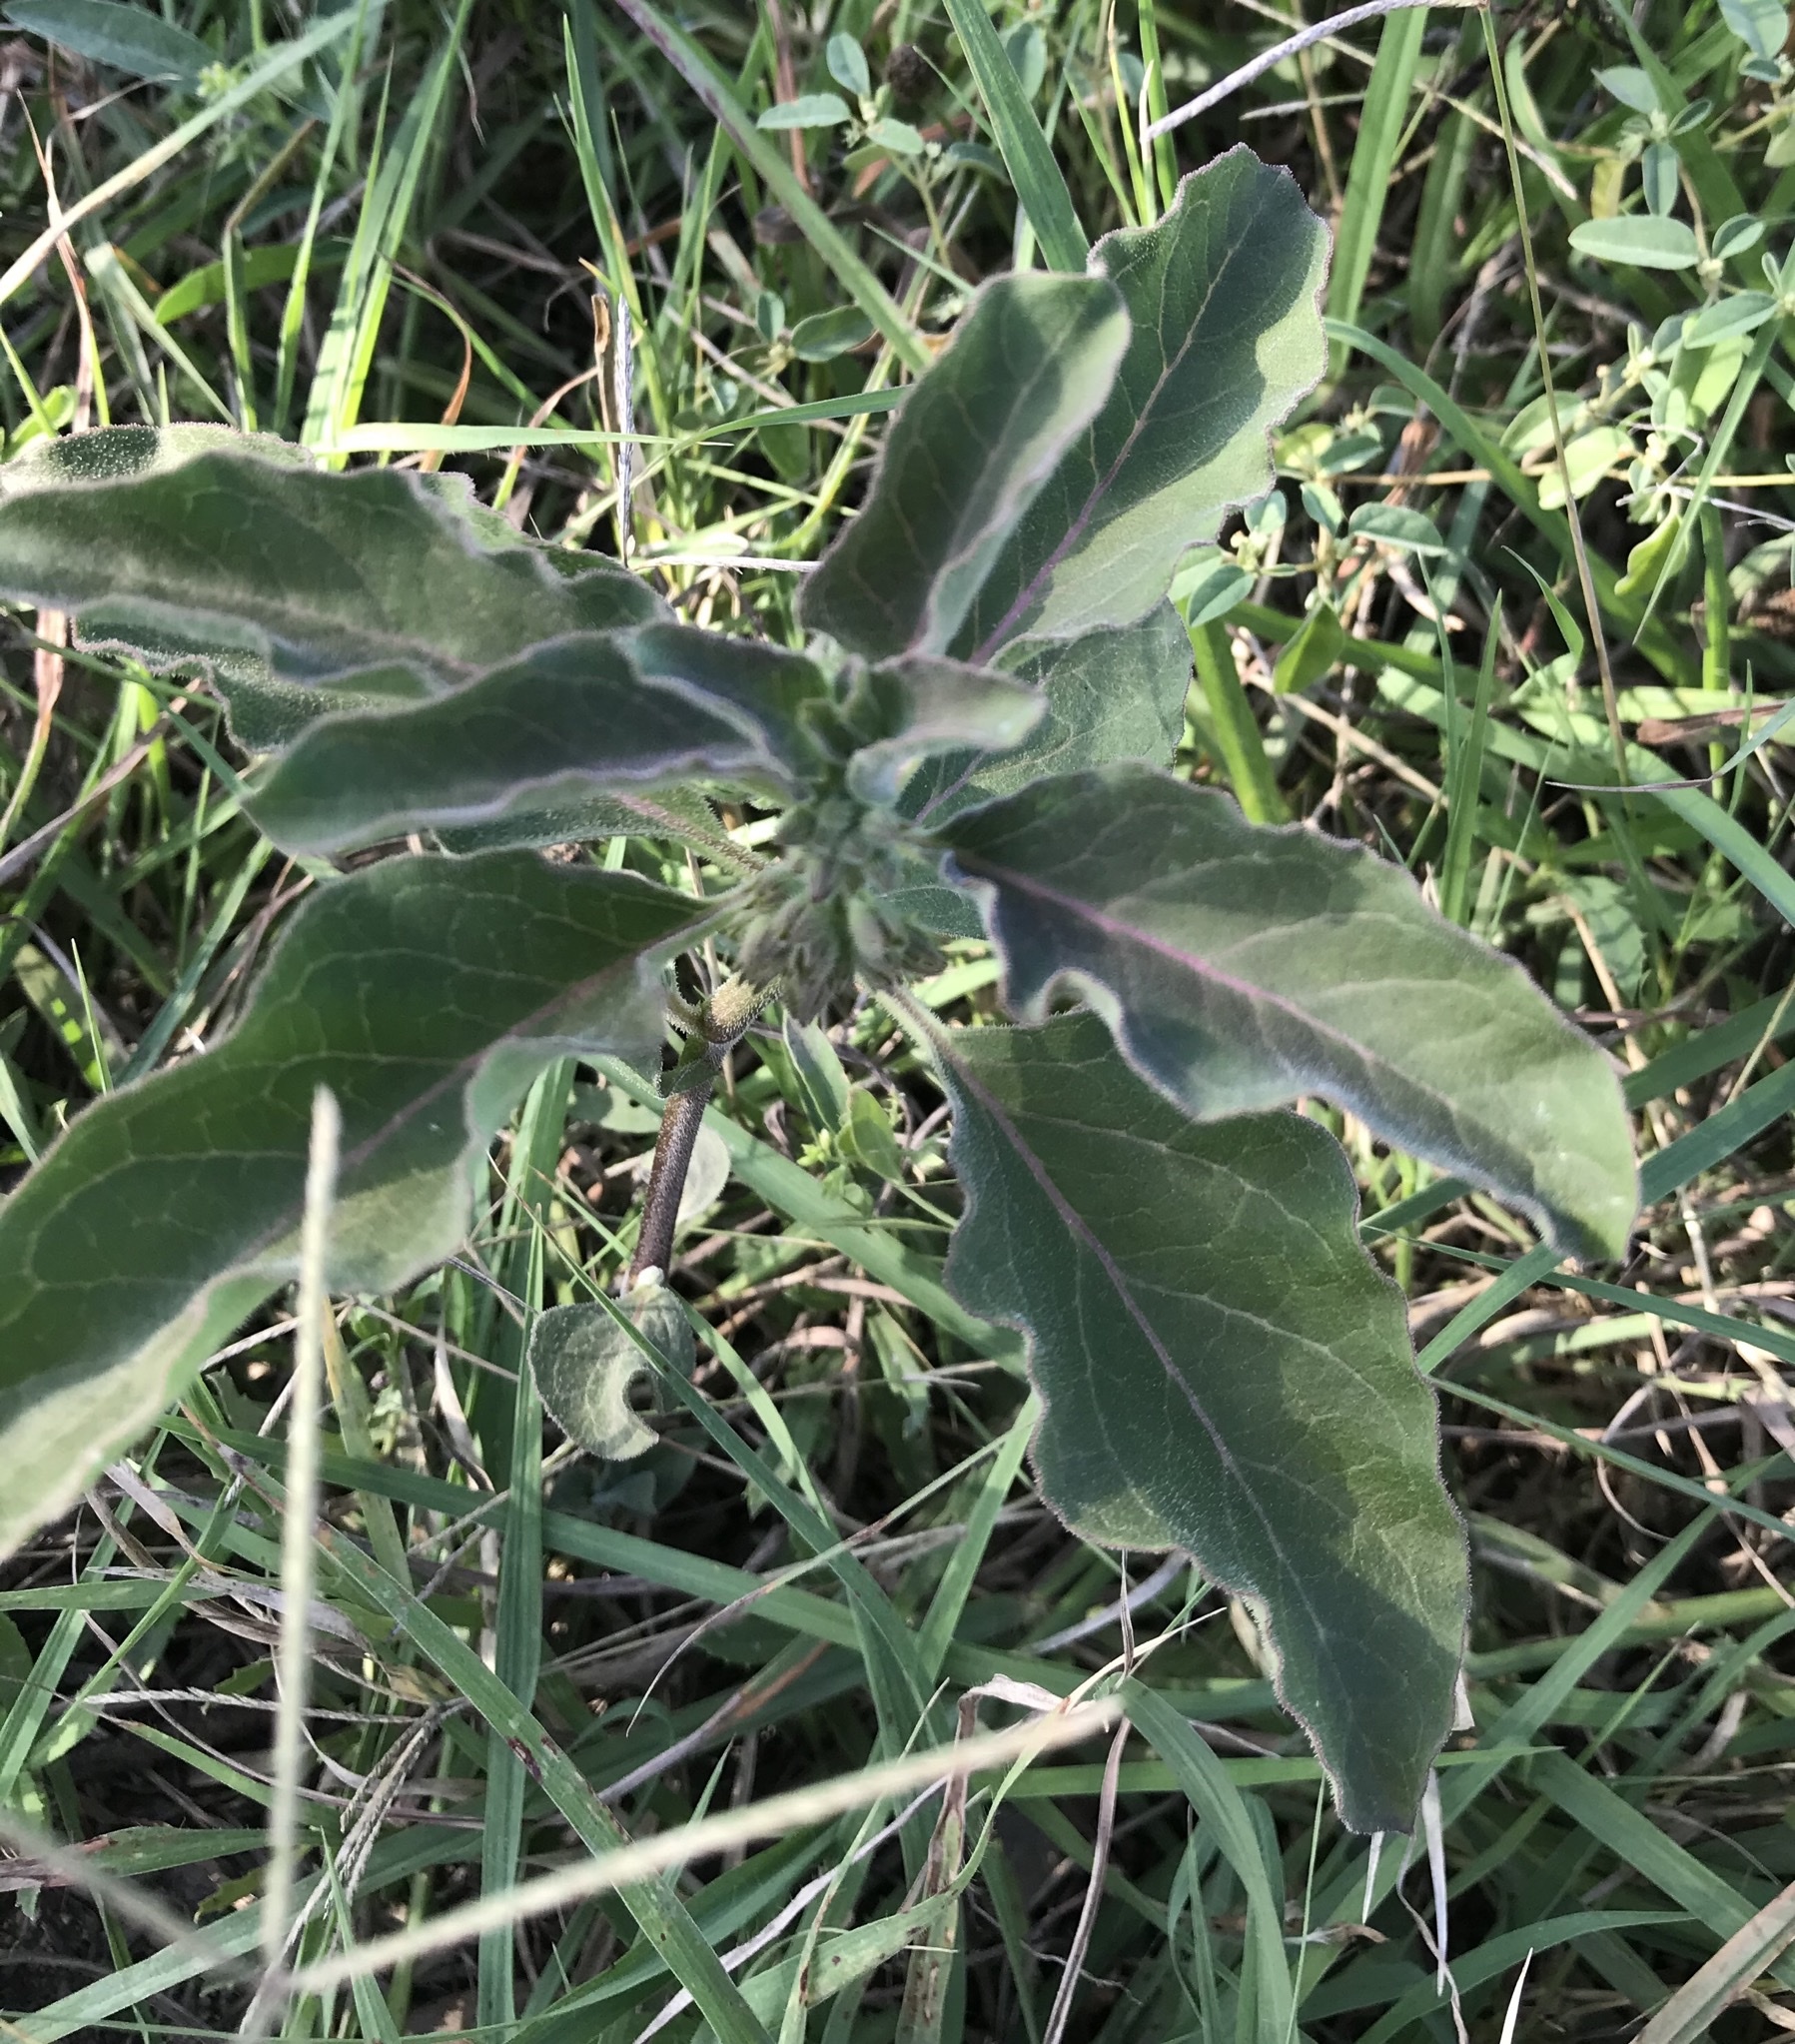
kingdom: Plantae
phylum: Tracheophyta
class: Magnoliopsida
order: Gentianales
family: Apocynaceae
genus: Asclepias
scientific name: Asclepias oenotheroides
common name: Zizotes milkweed
